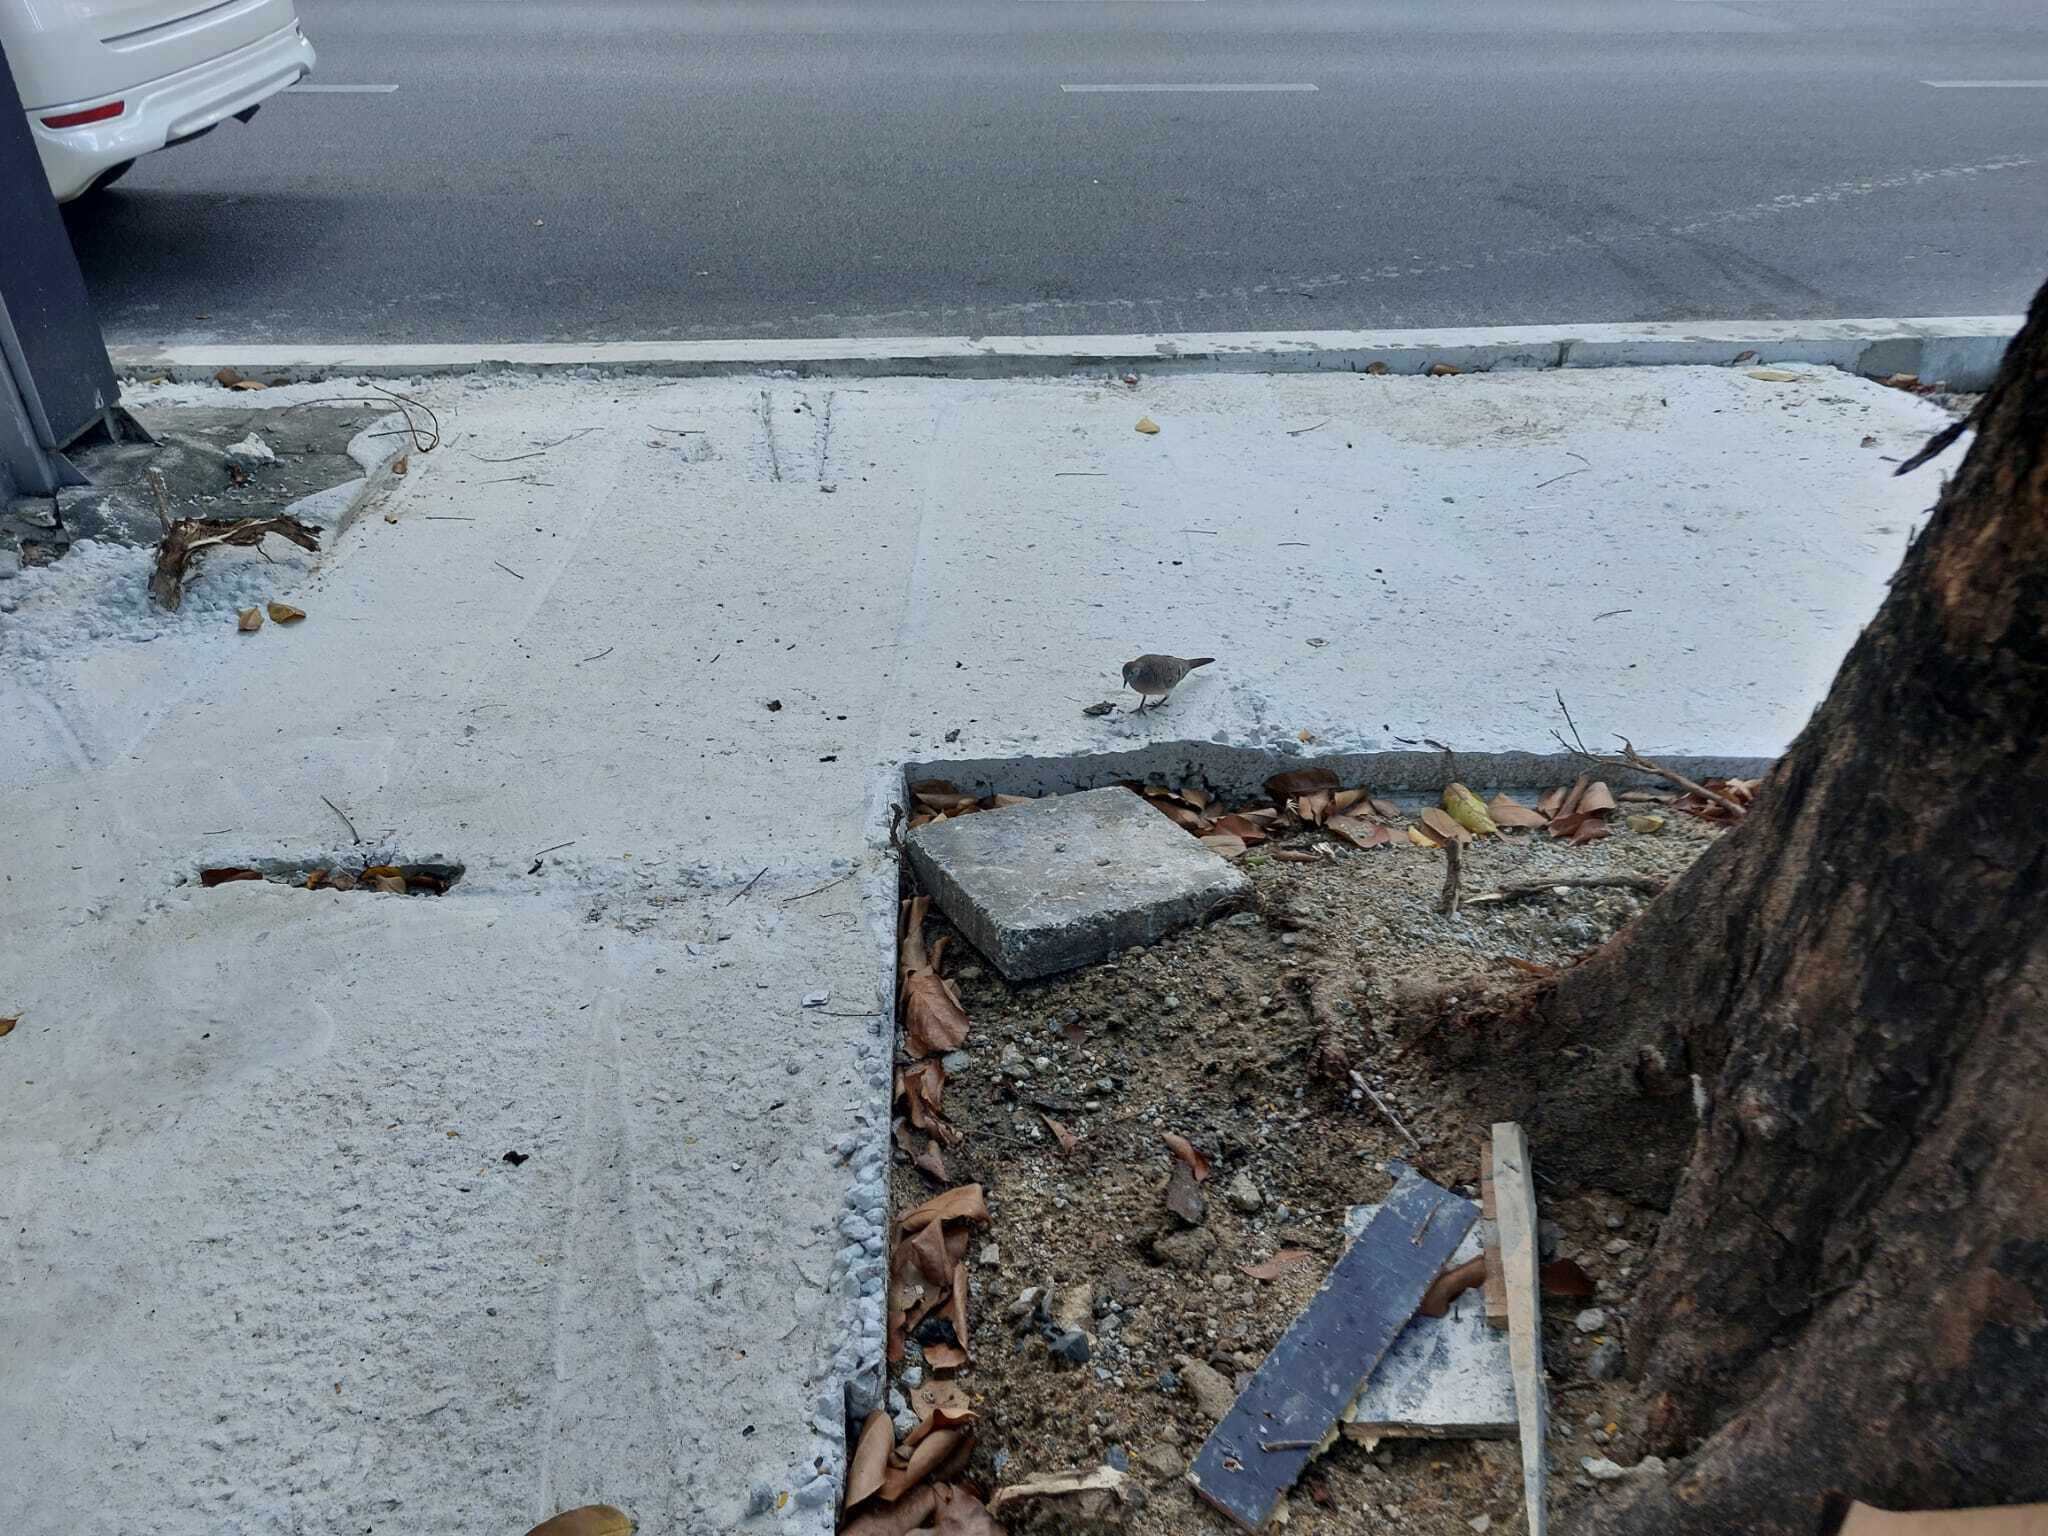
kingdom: Animalia
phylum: Chordata
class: Aves
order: Columbiformes
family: Columbidae
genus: Geopelia
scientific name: Geopelia striata
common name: Zebra dove
